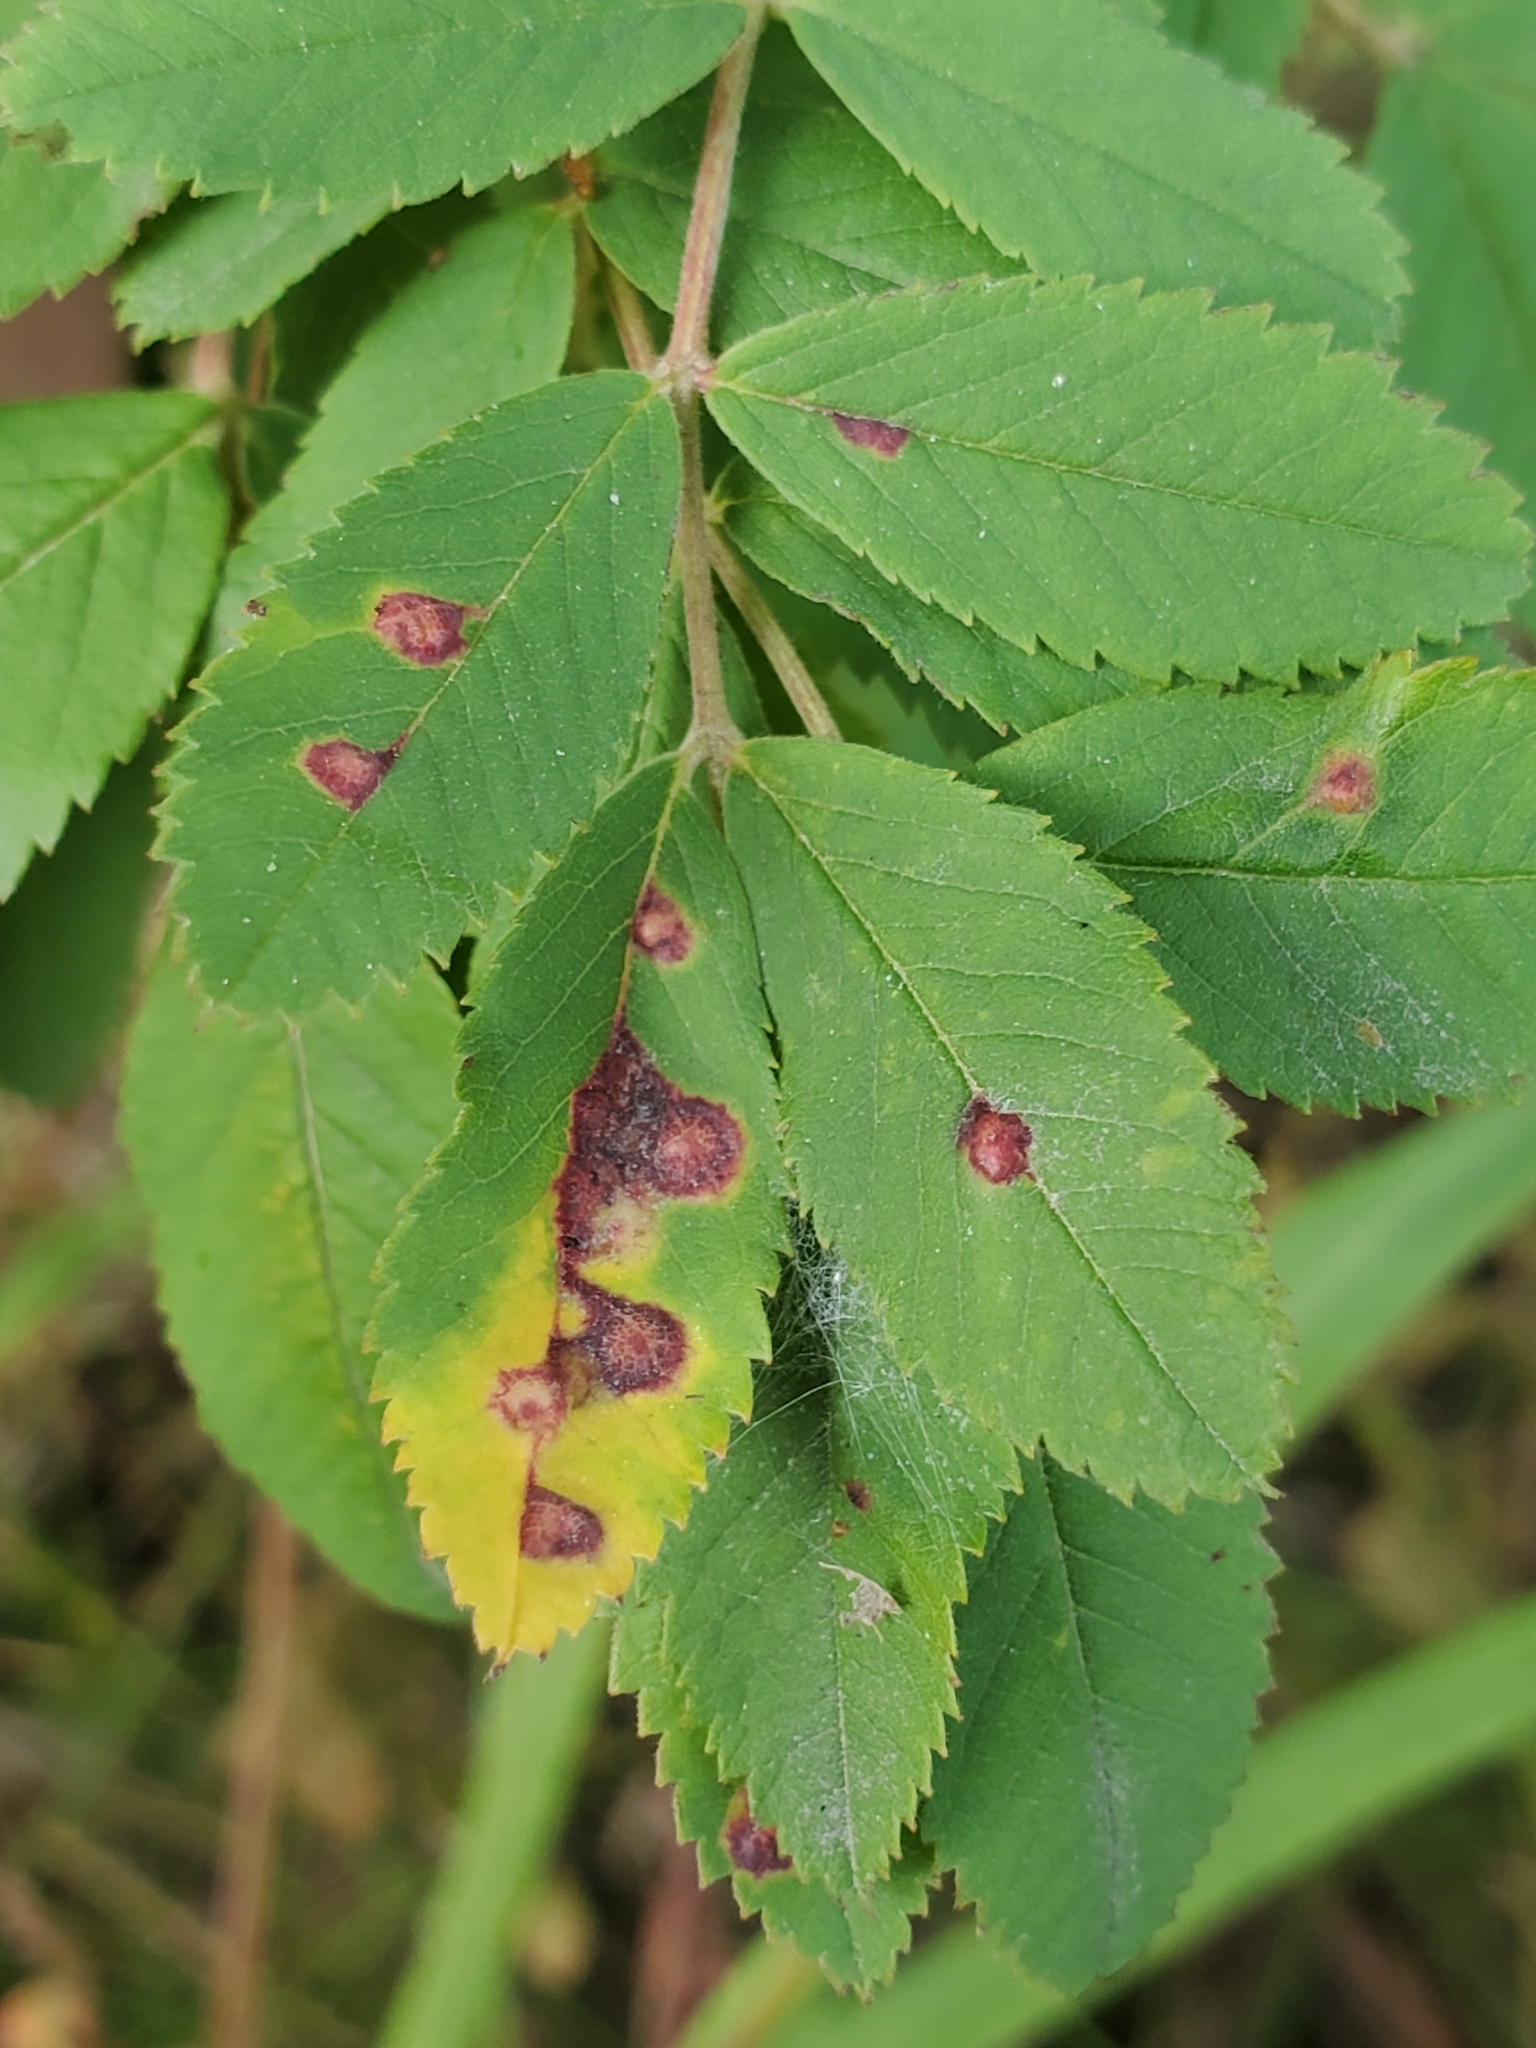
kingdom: Animalia
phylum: Arthropoda
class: Insecta
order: Hymenoptera
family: Cynipidae
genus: Diplolepis
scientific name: Diplolepis rosaefolii
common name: Blister-gall wasp
